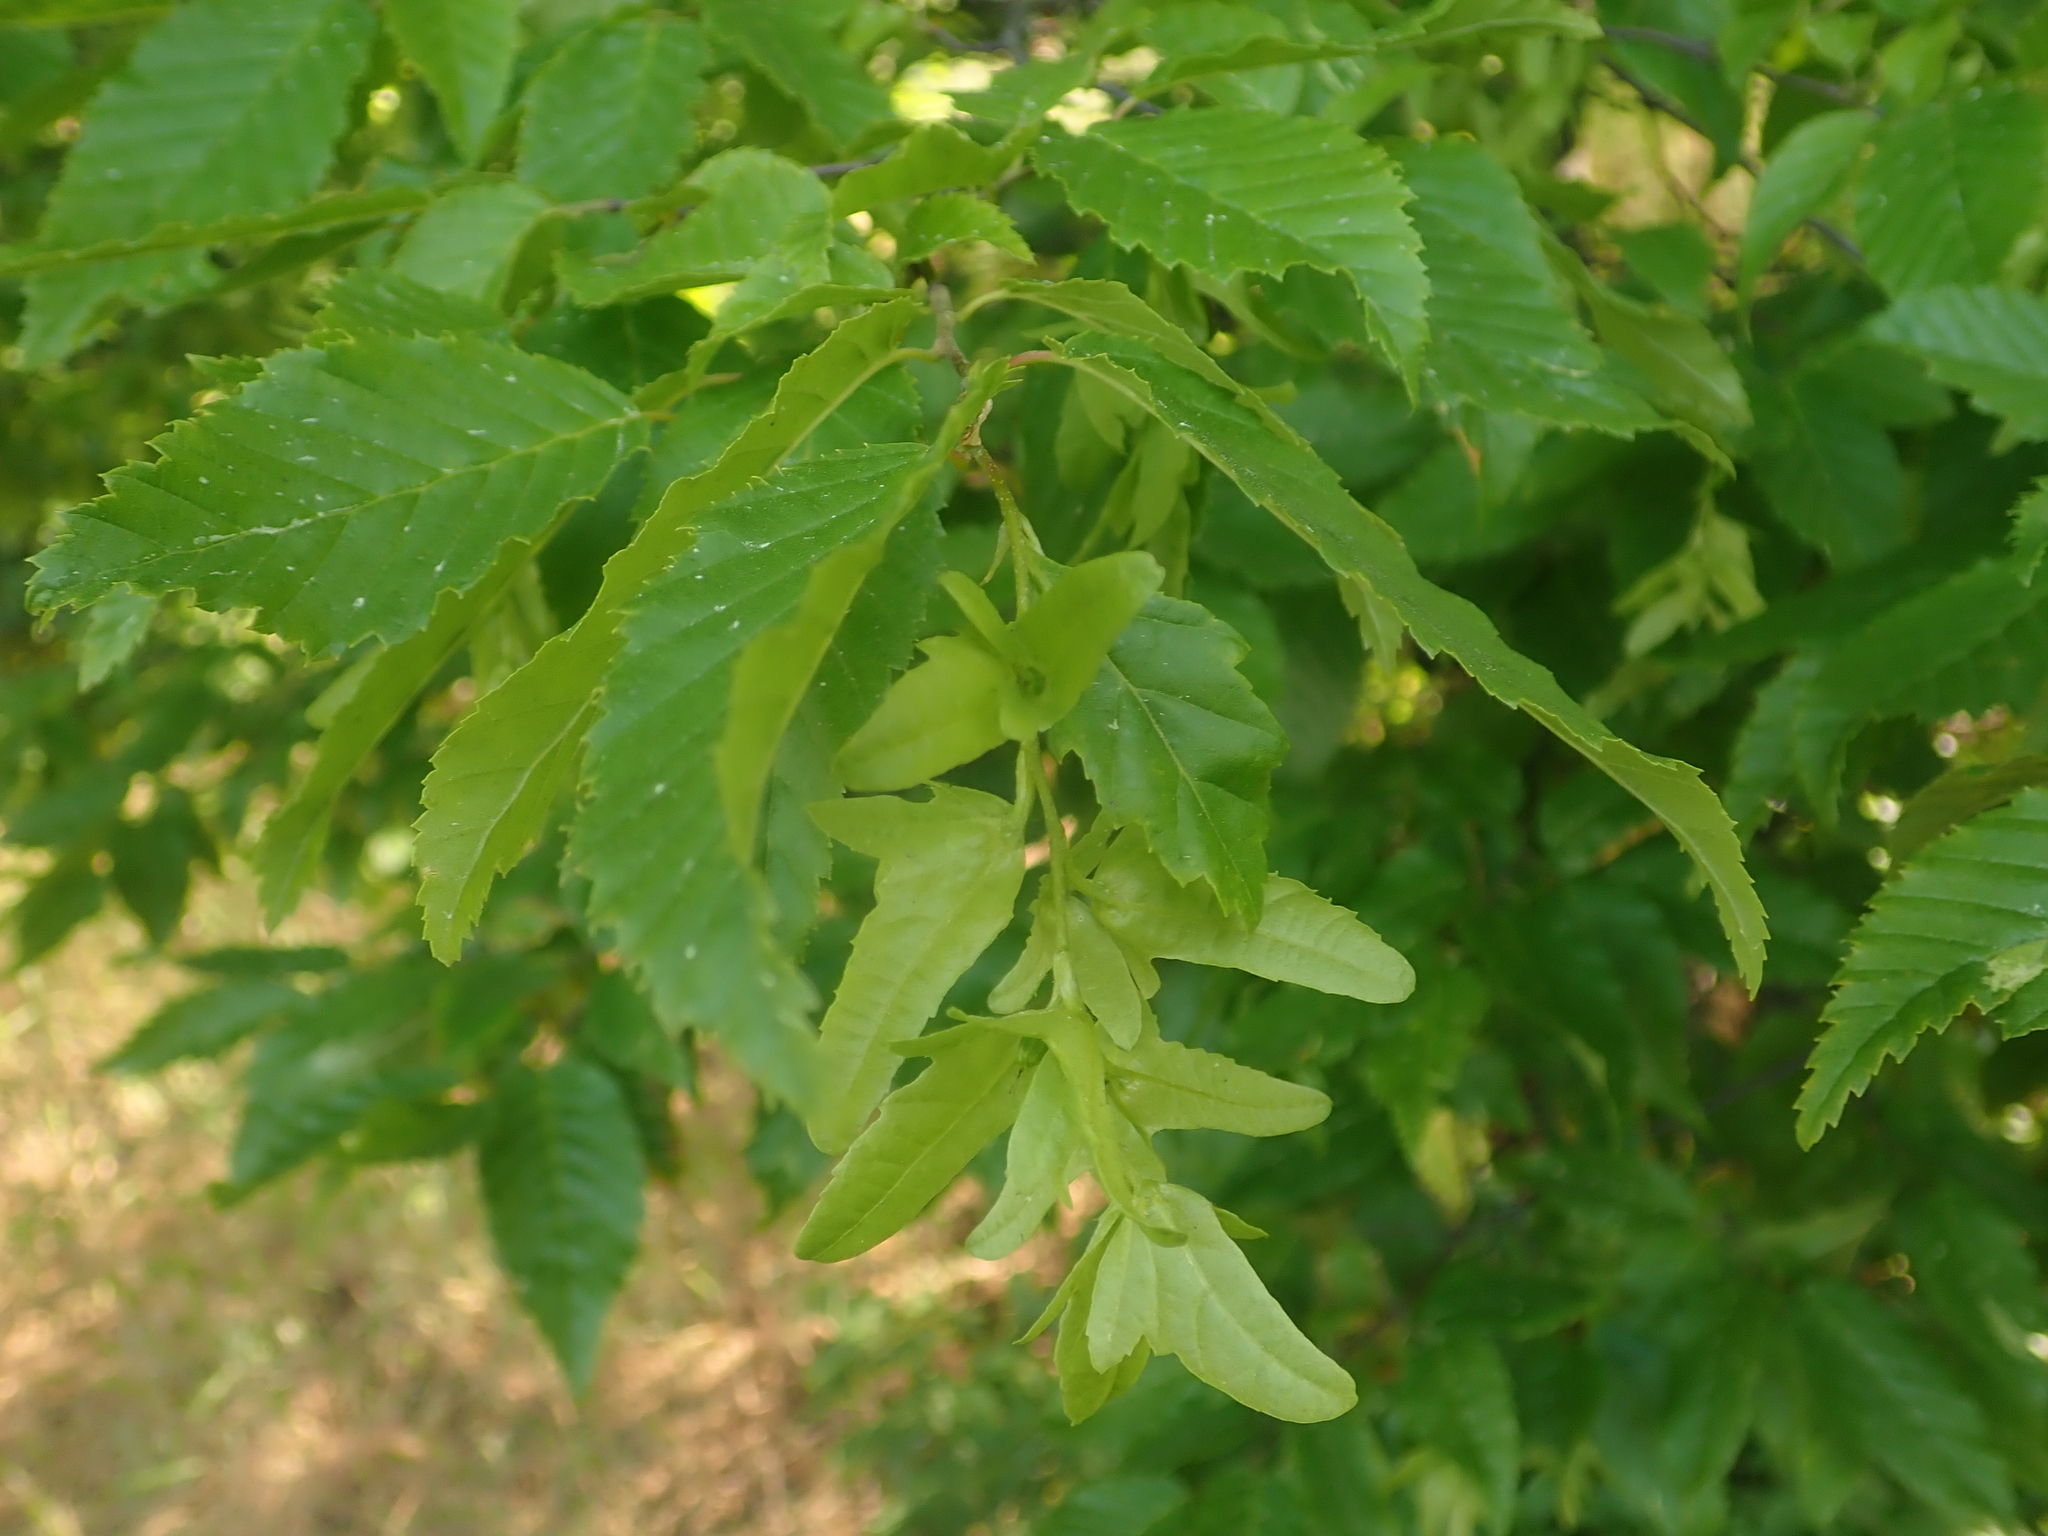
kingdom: Plantae
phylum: Tracheophyta
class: Magnoliopsida
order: Fagales
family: Betulaceae
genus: Carpinus
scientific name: Carpinus betulus
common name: Hornbeam
